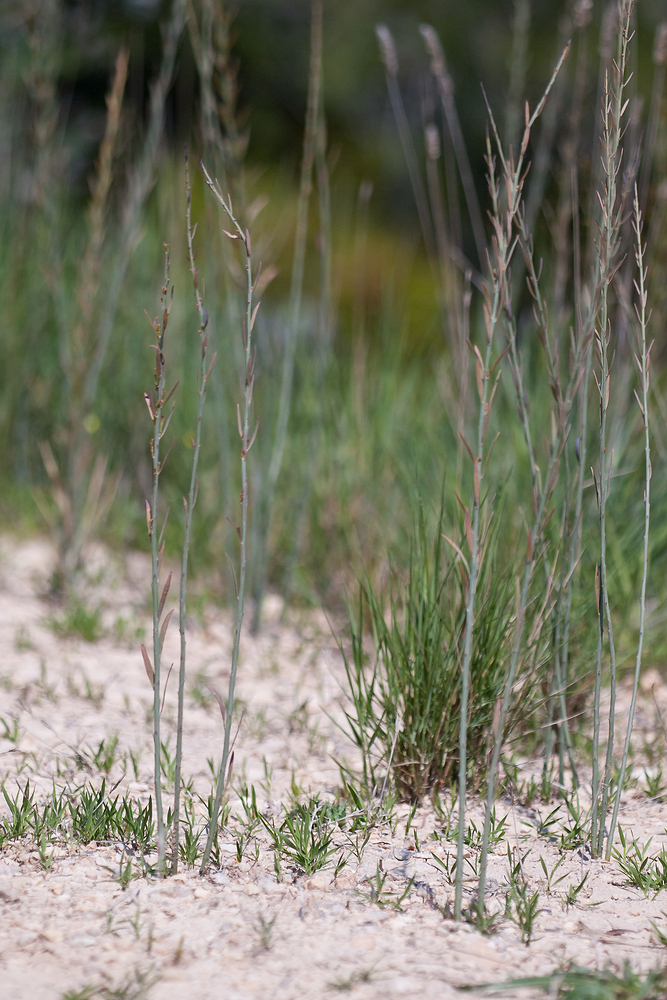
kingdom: Plantae
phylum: Tracheophyta
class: Magnoliopsida
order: Santalales
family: Santalaceae
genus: Osyris
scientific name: Osyris alba
